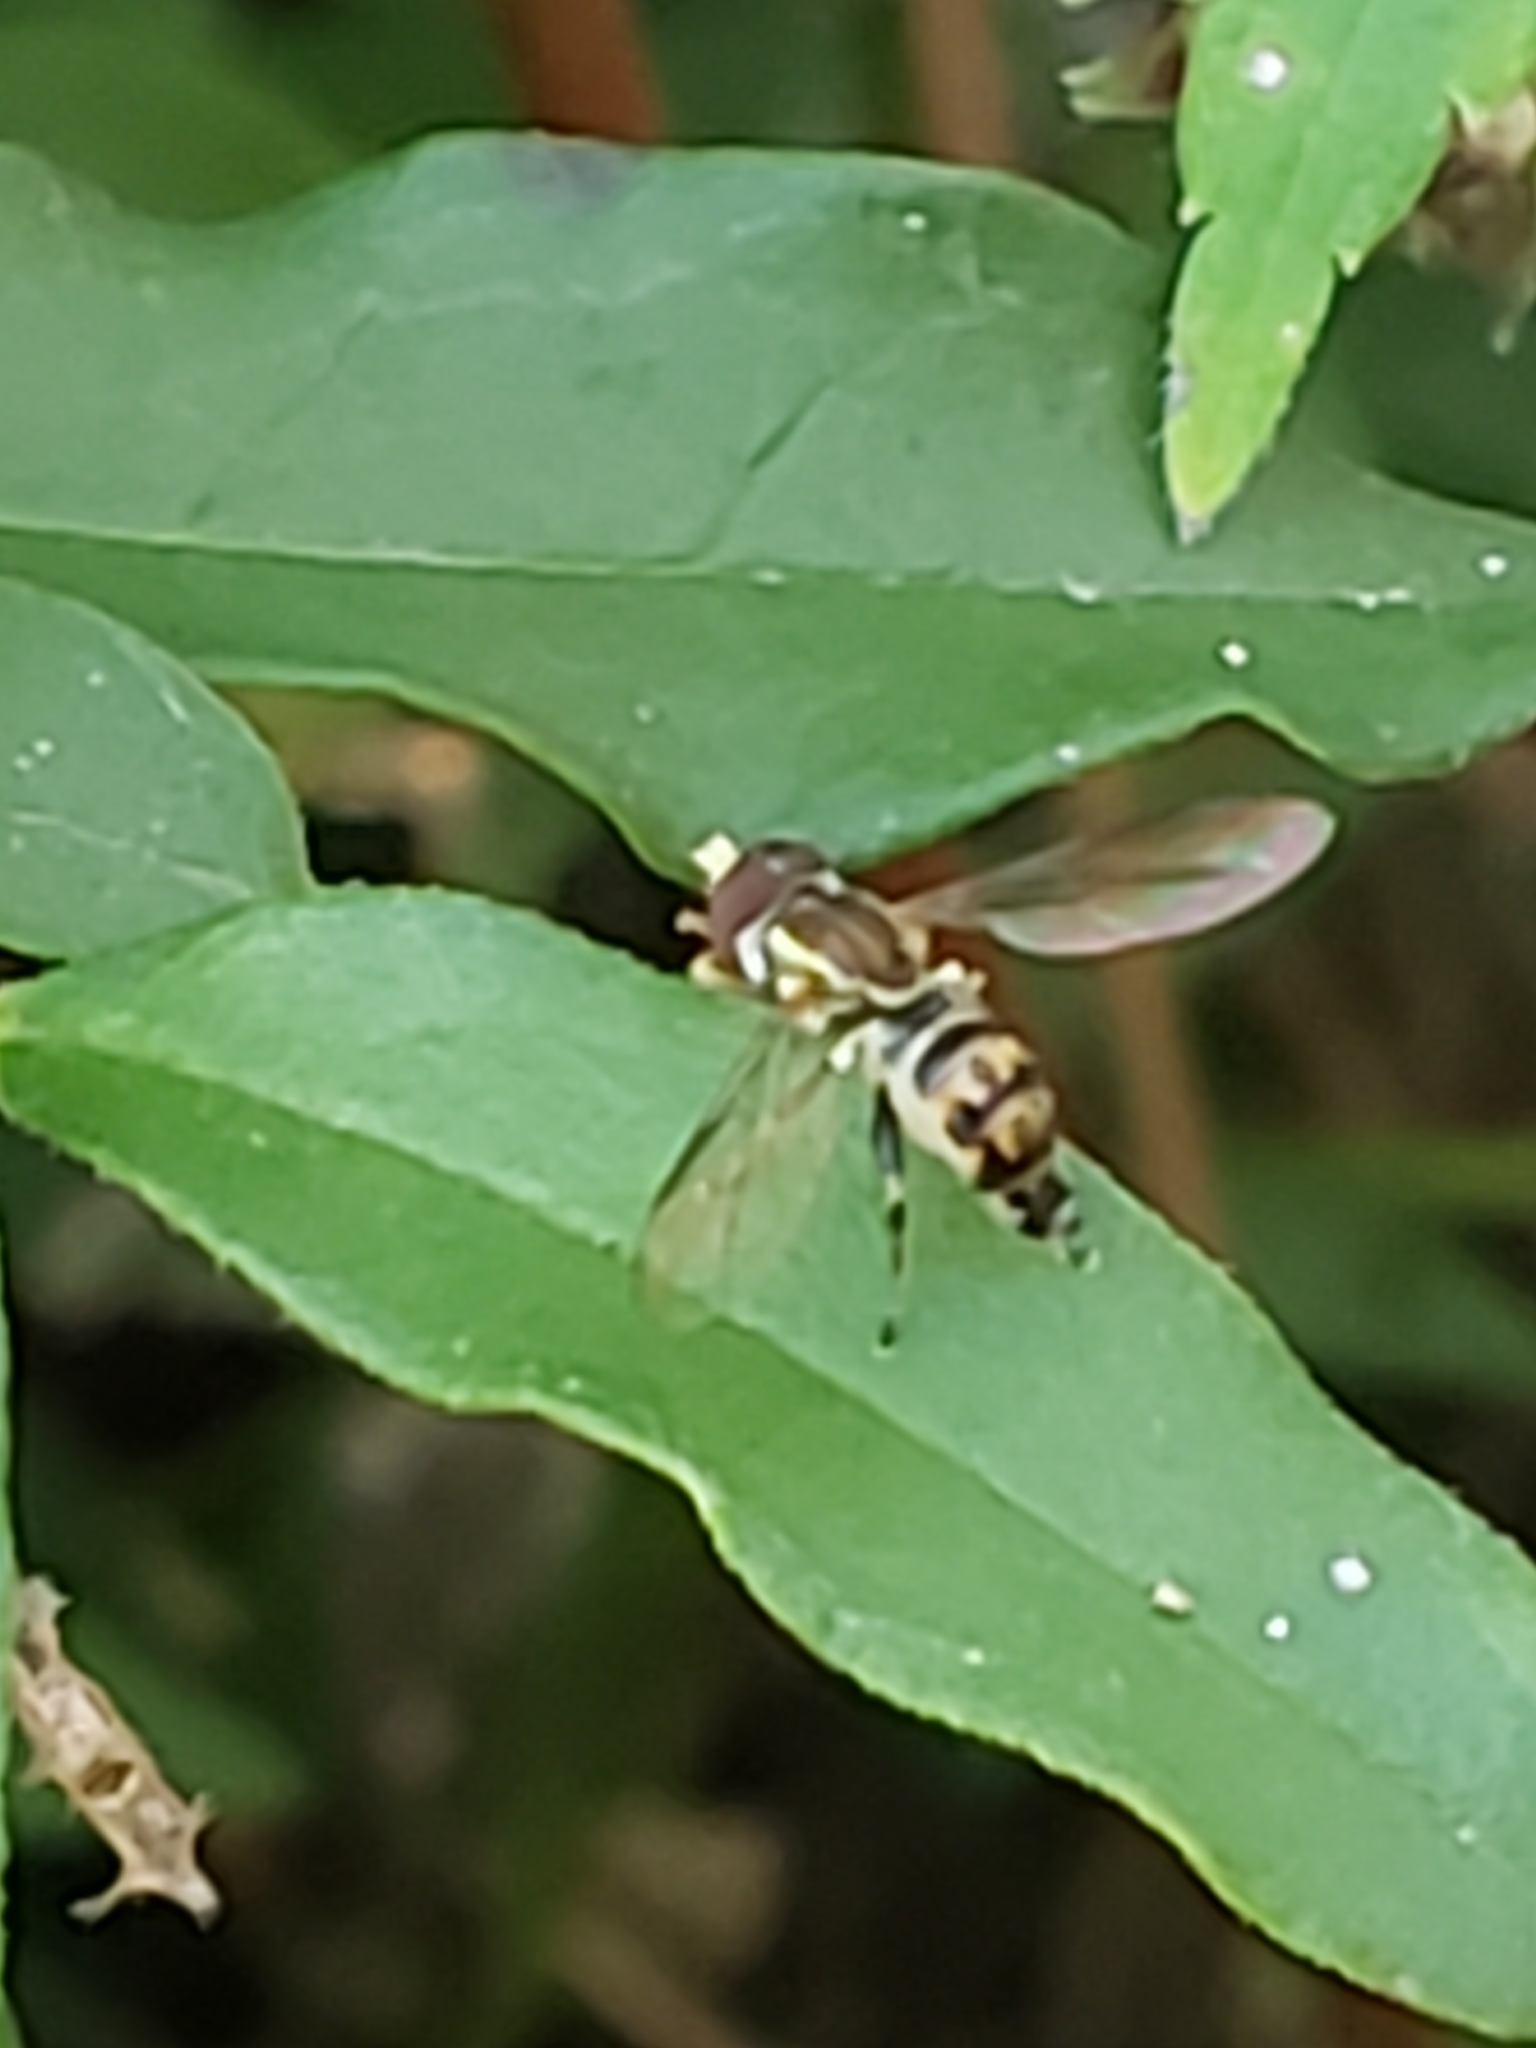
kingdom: Animalia
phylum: Arthropoda
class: Insecta
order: Diptera
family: Syrphidae
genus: Toxomerus
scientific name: Toxomerus geminatus
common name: Eastern calligrapher
